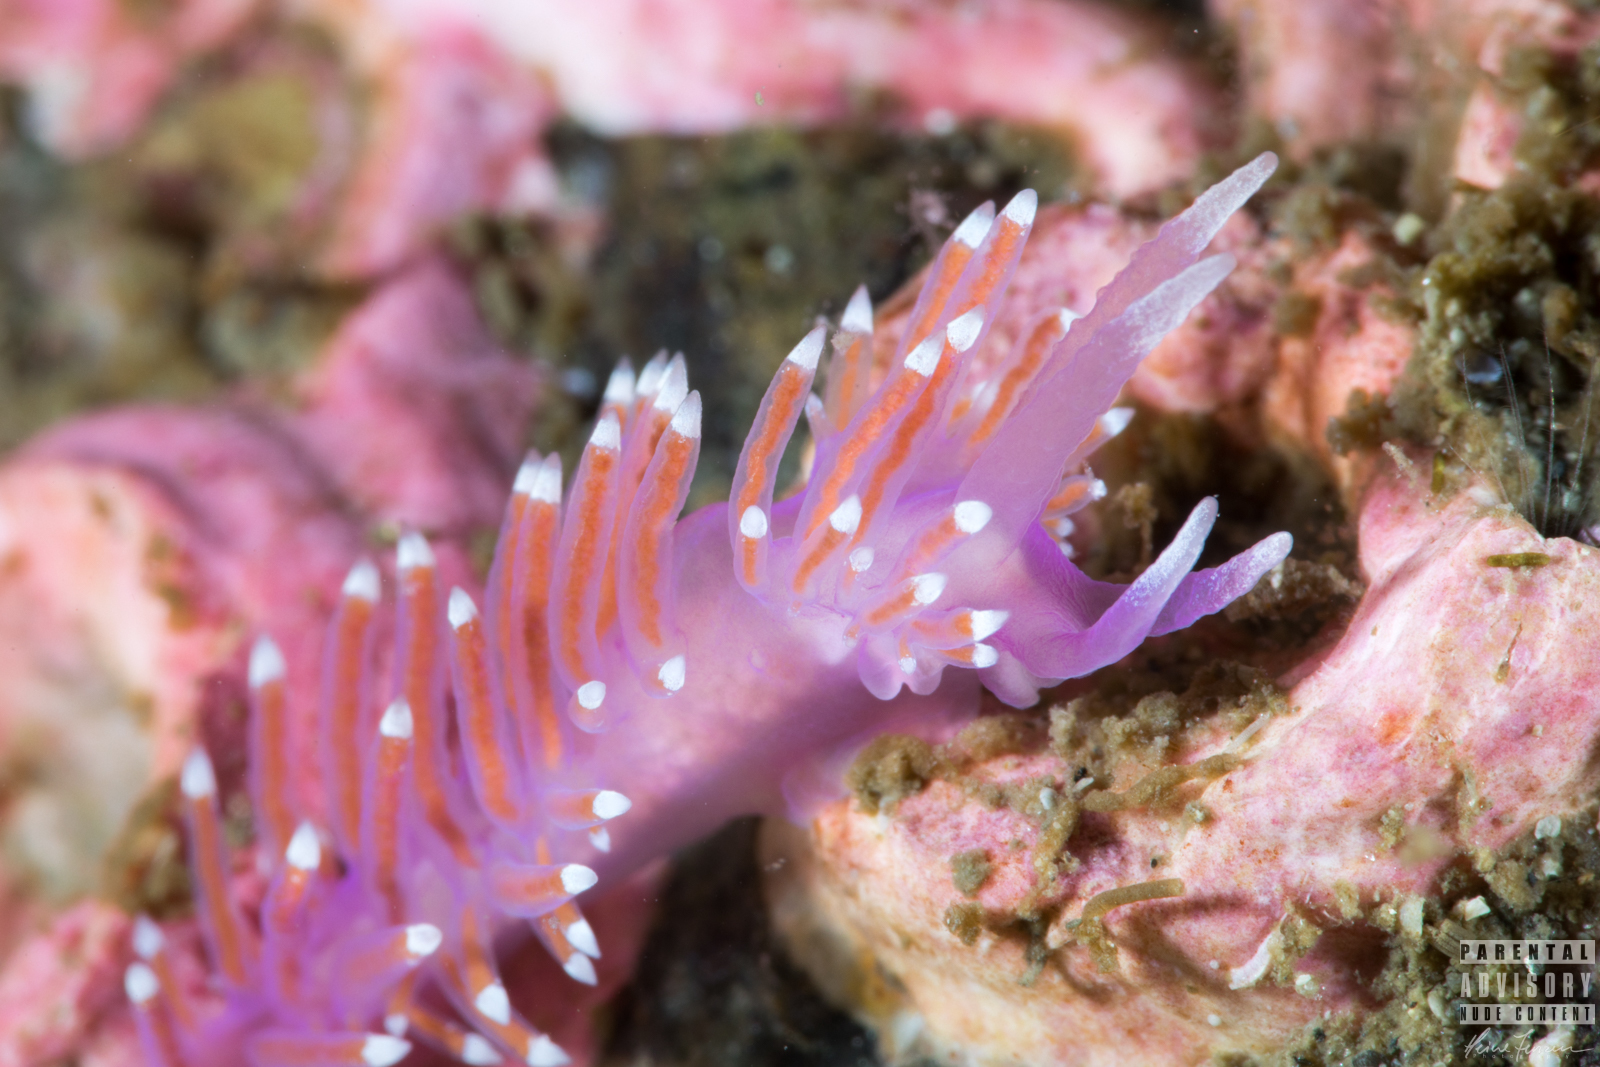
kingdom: Animalia
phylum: Mollusca
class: Gastropoda
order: Nudibranchia
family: Flabellinidae
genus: Edmundsella
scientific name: Edmundsella pedata
